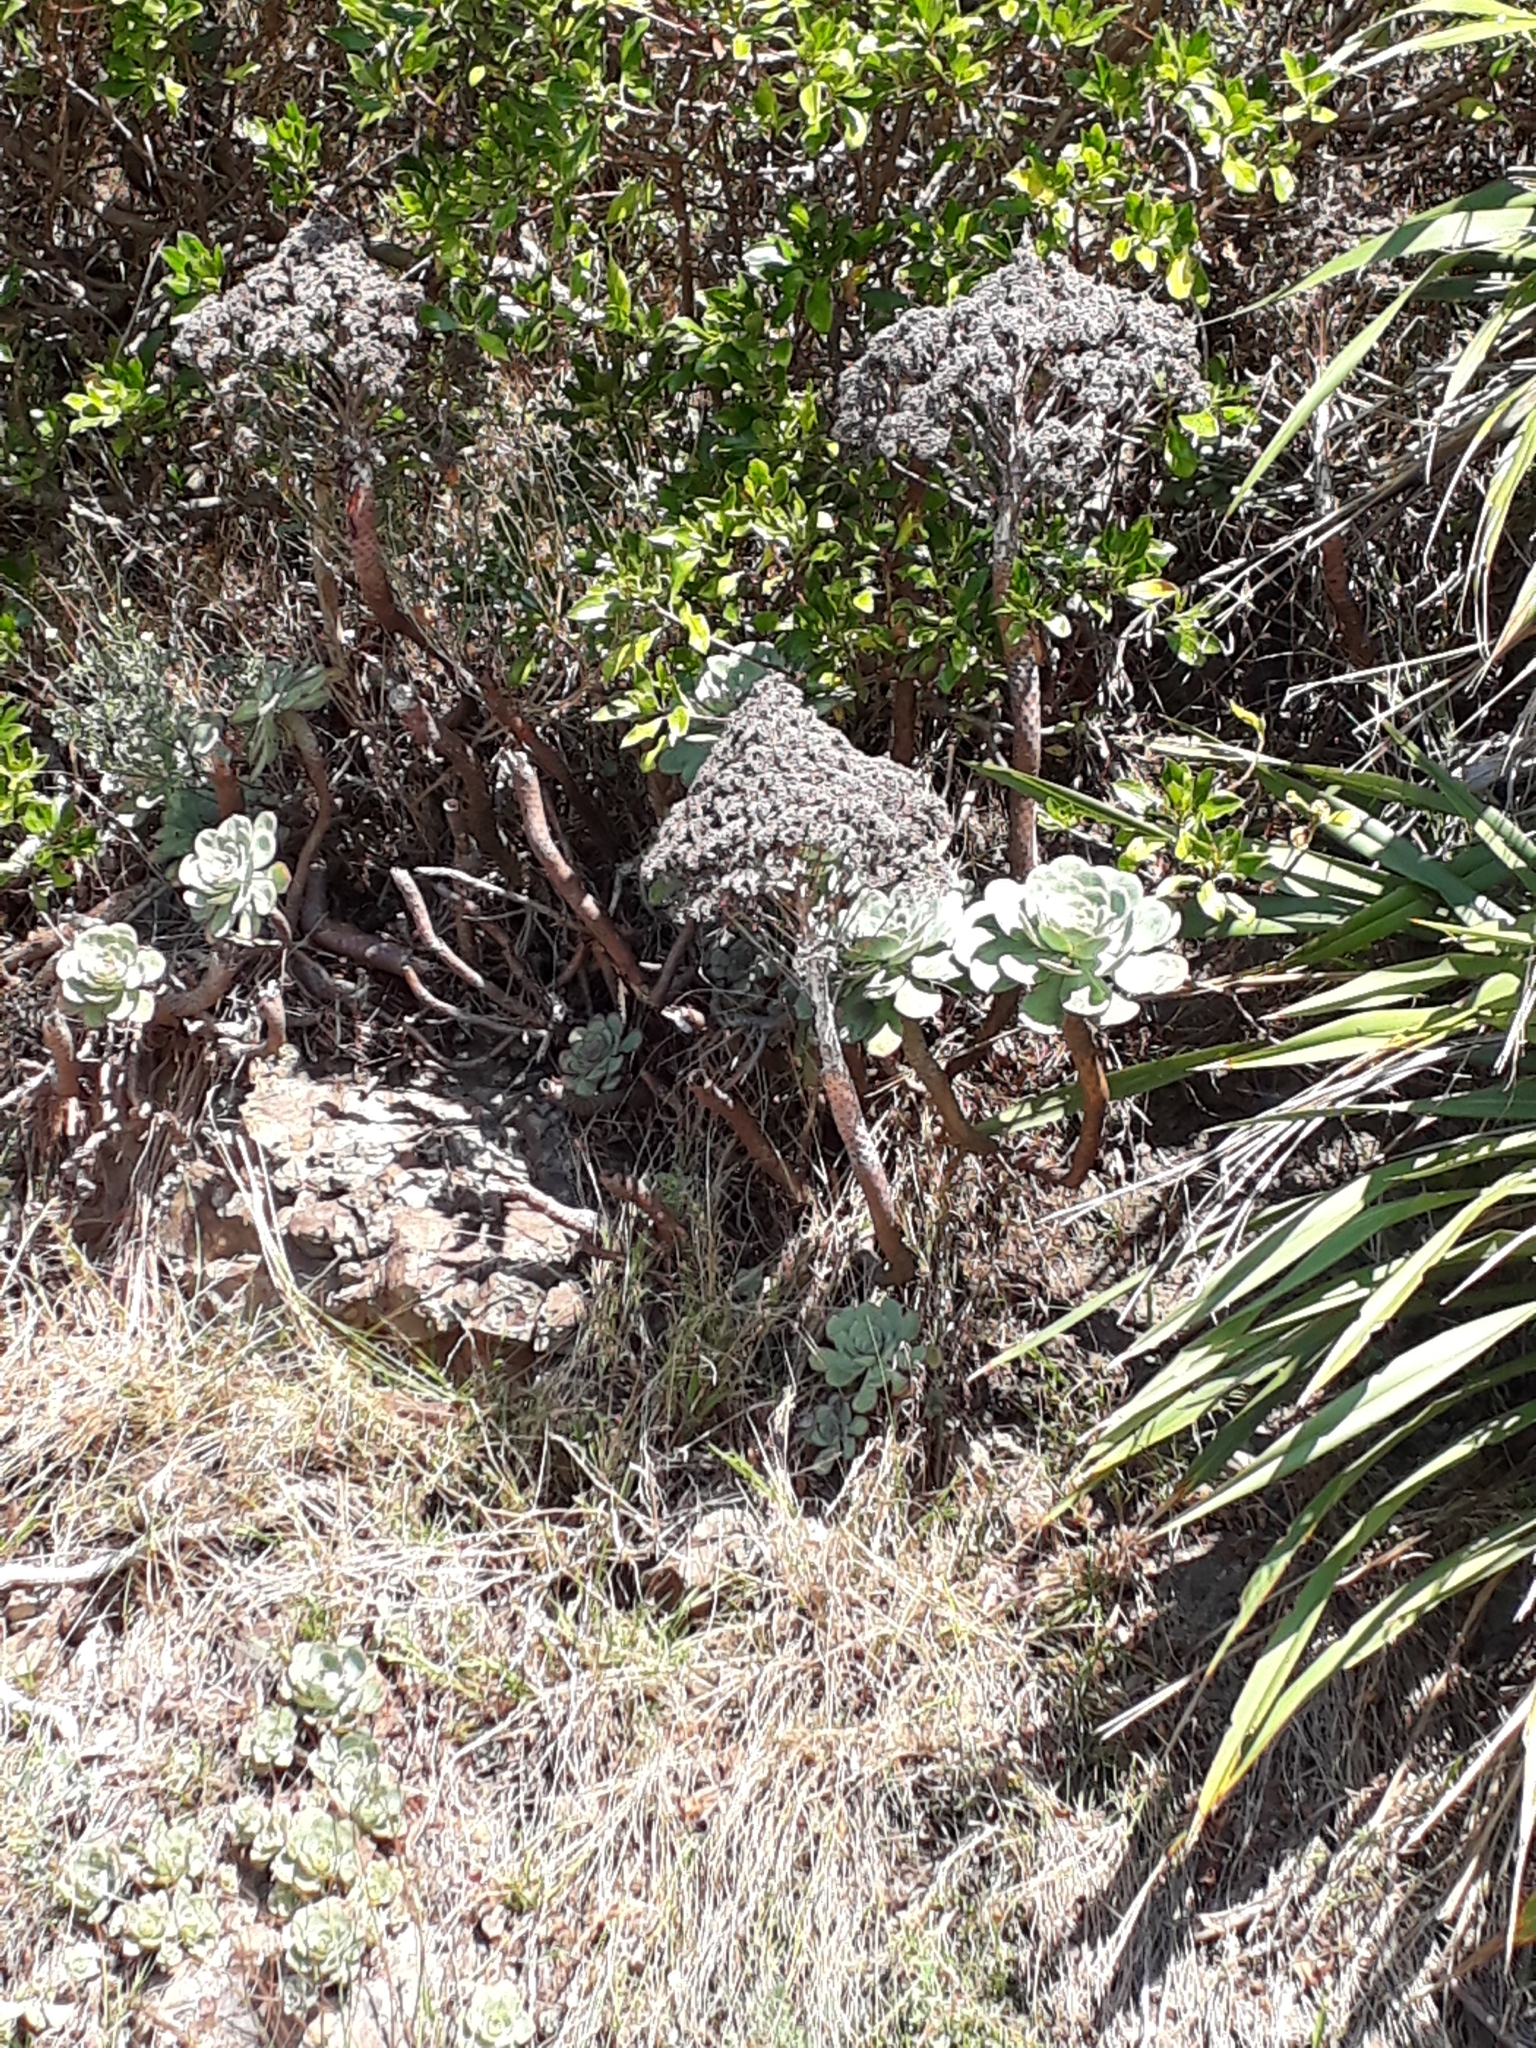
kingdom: Plantae
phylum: Tracheophyta
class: Magnoliopsida
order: Saxifragales
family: Crassulaceae
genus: Aeonium
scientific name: Aeonium arboreum
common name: Tree aeonium
